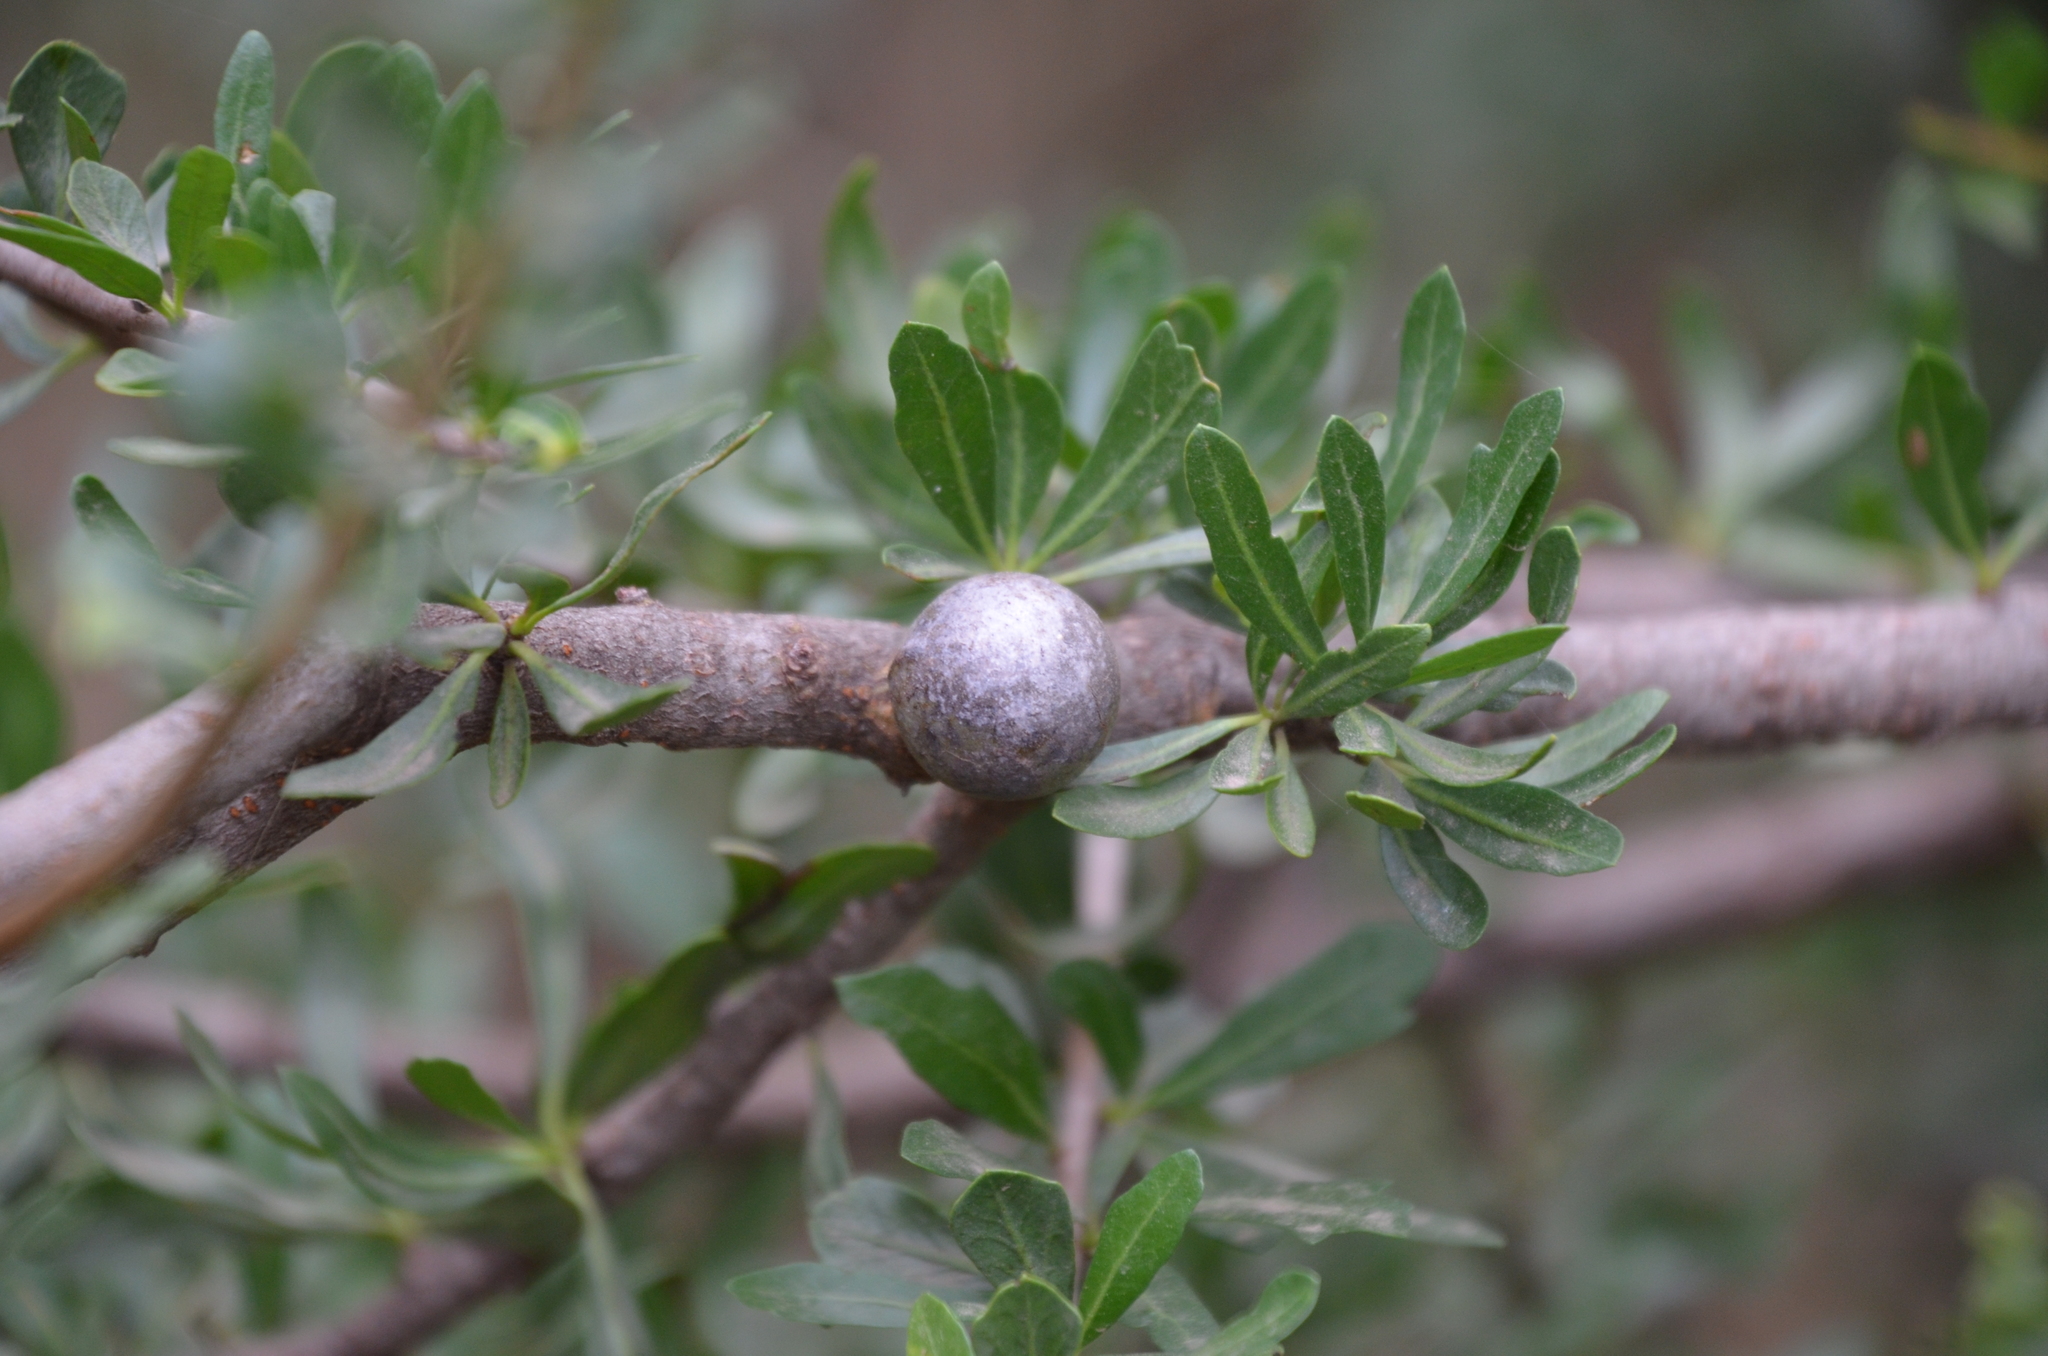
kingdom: Plantae
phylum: Tracheophyta
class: Magnoliopsida
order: Sapindales
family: Anacardiaceae
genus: Schinus
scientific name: Schinus fasciculata
